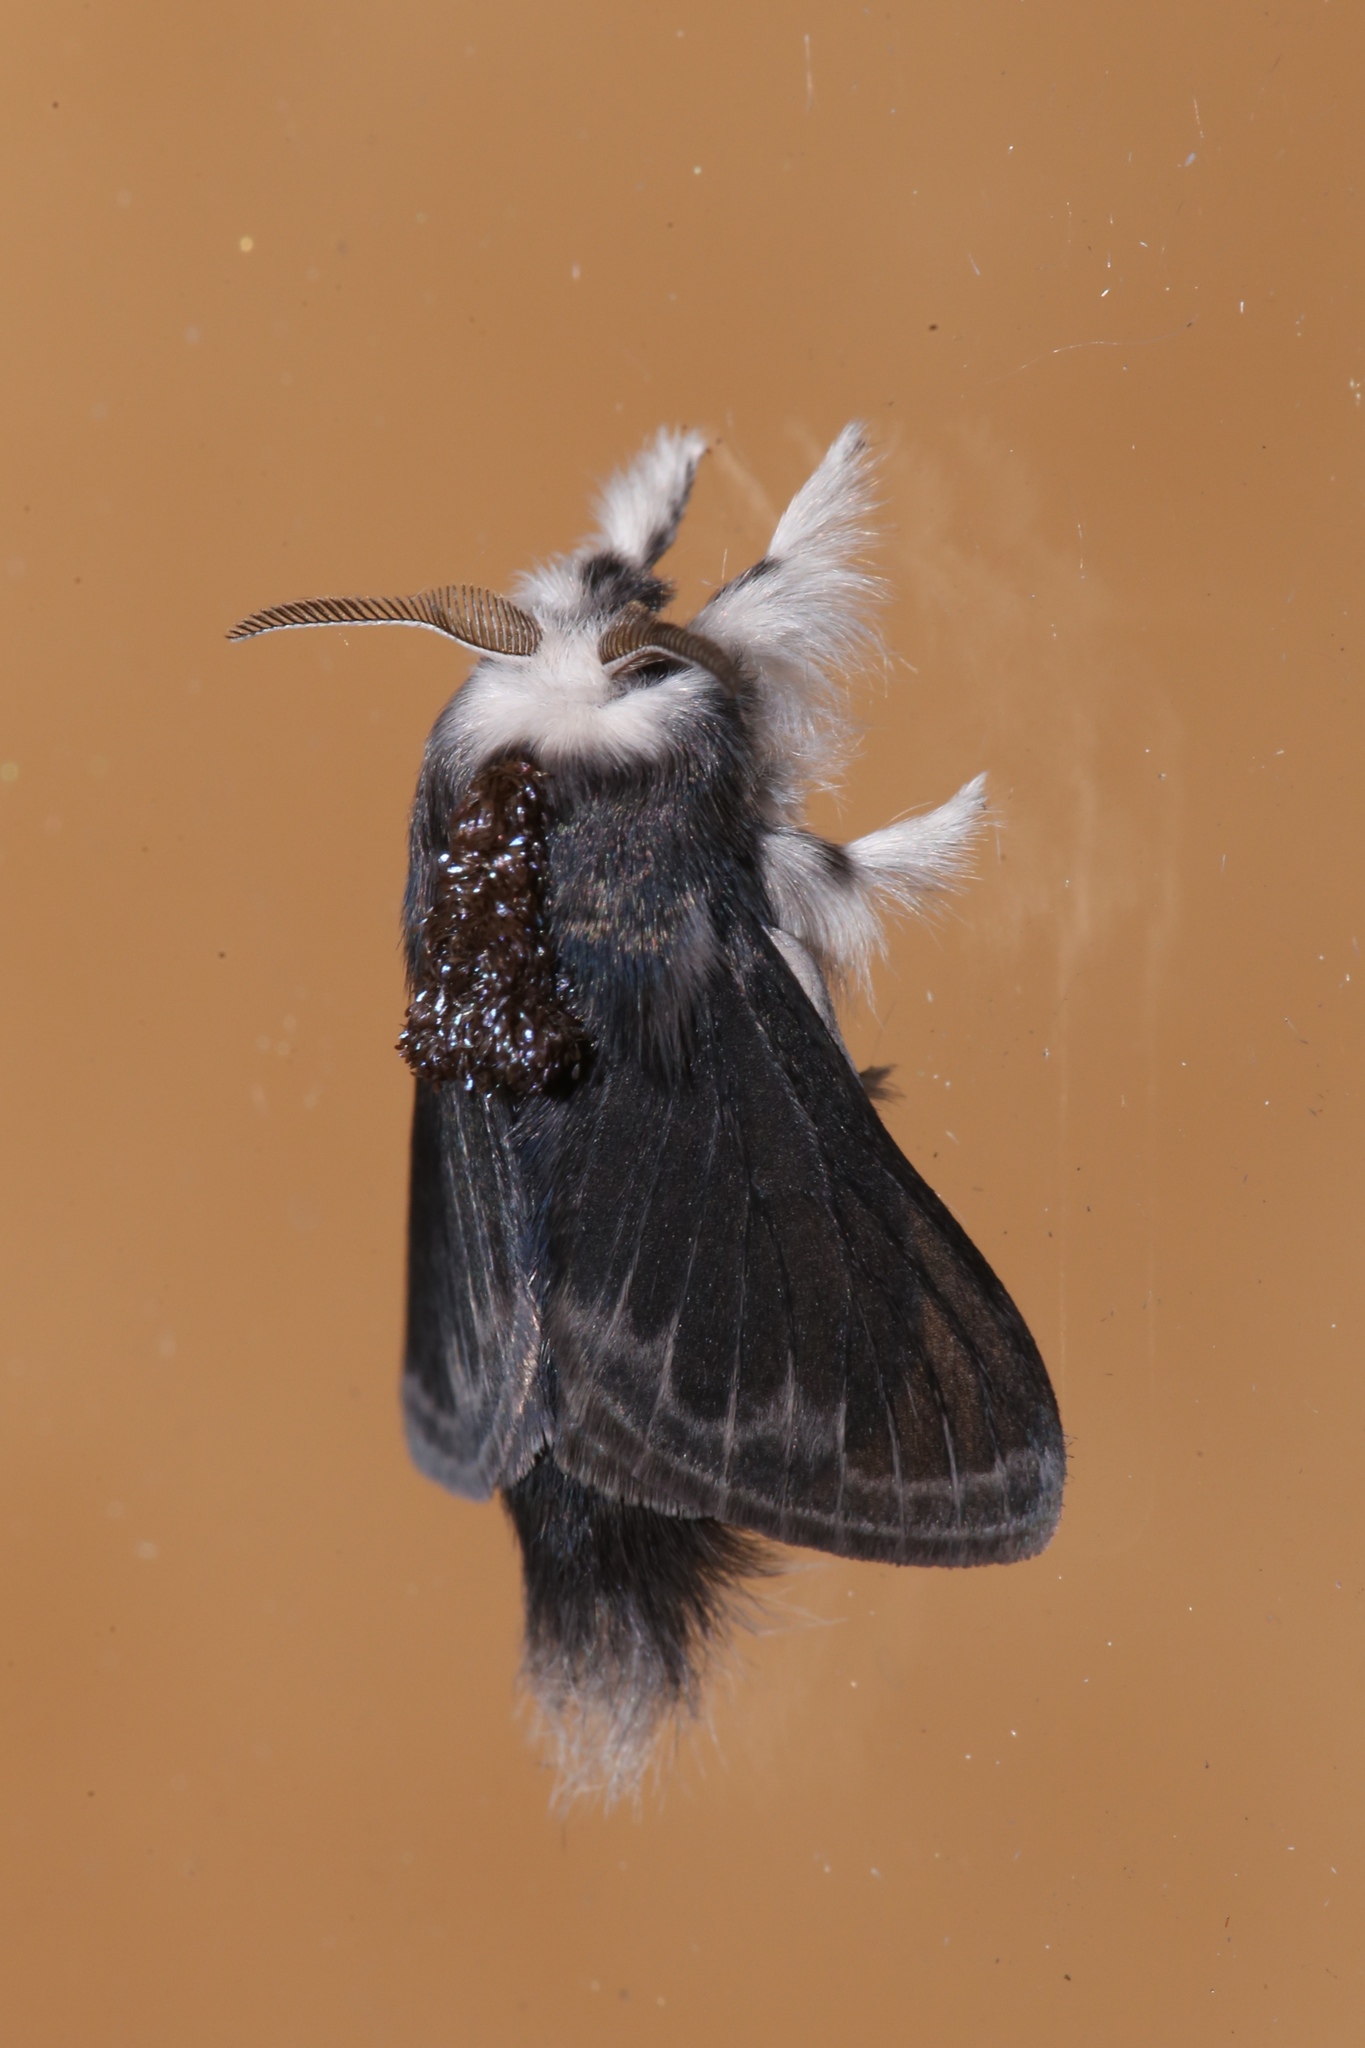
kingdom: Animalia
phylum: Arthropoda
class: Insecta
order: Lepidoptera
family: Lasiocampidae
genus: Tolype
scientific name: Tolype laricis
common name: Larch tolype moth
